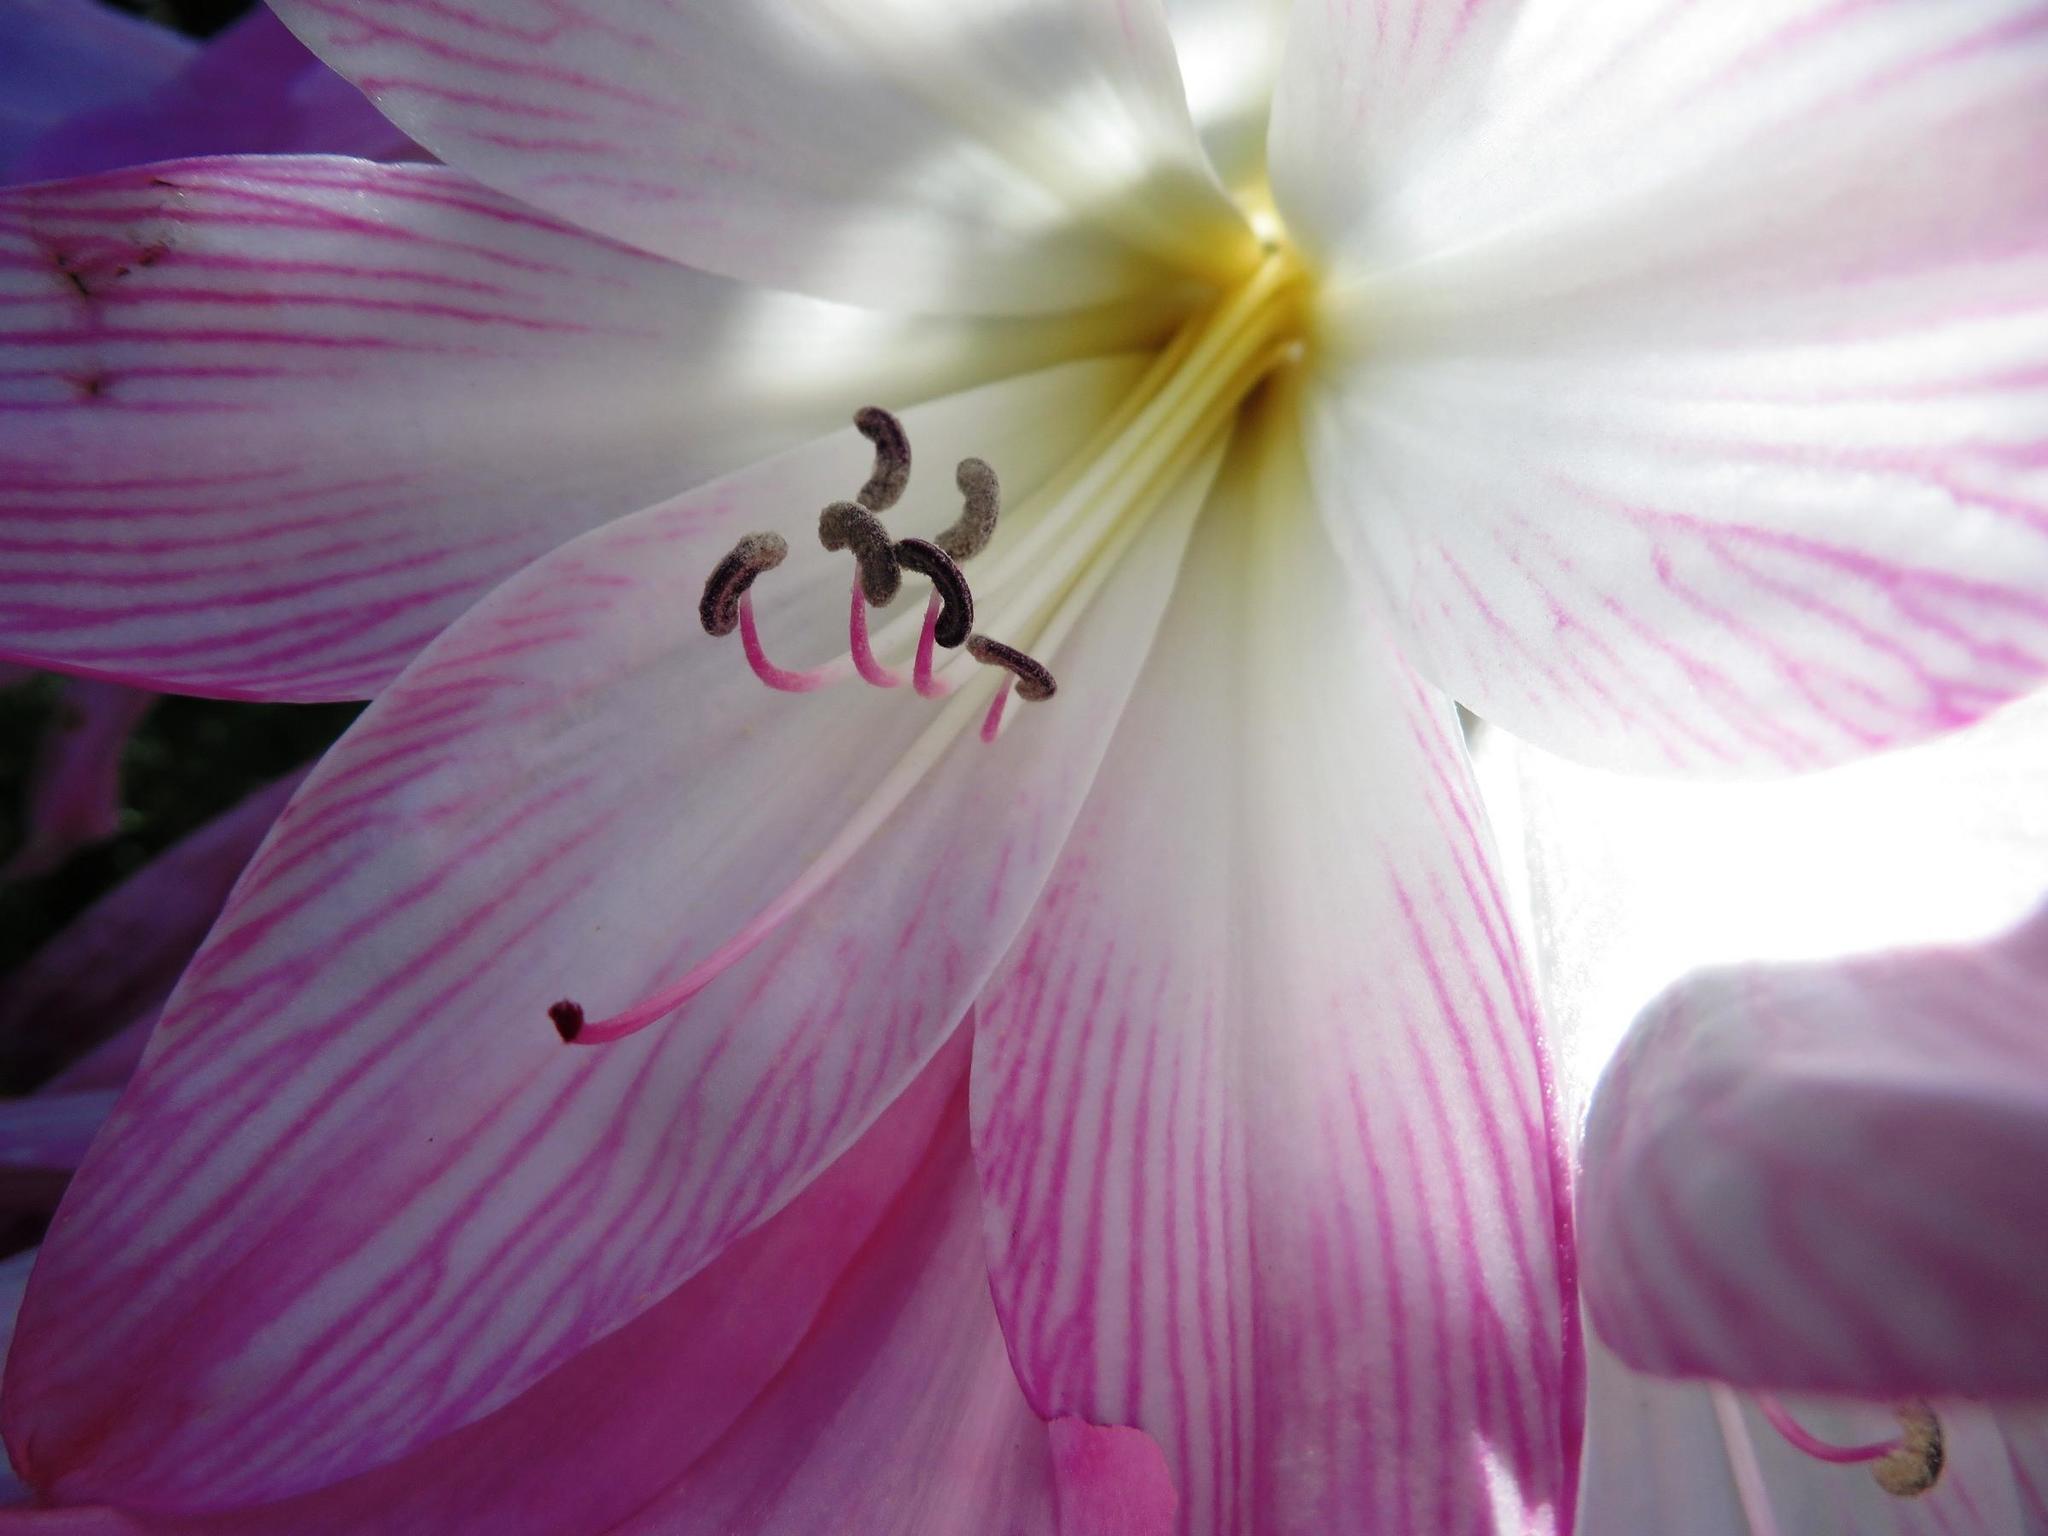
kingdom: Plantae
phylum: Tracheophyta
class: Liliopsida
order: Asparagales
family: Amaryllidaceae
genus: Amaryllis
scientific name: Amaryllis belladonna
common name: Jersey lily
